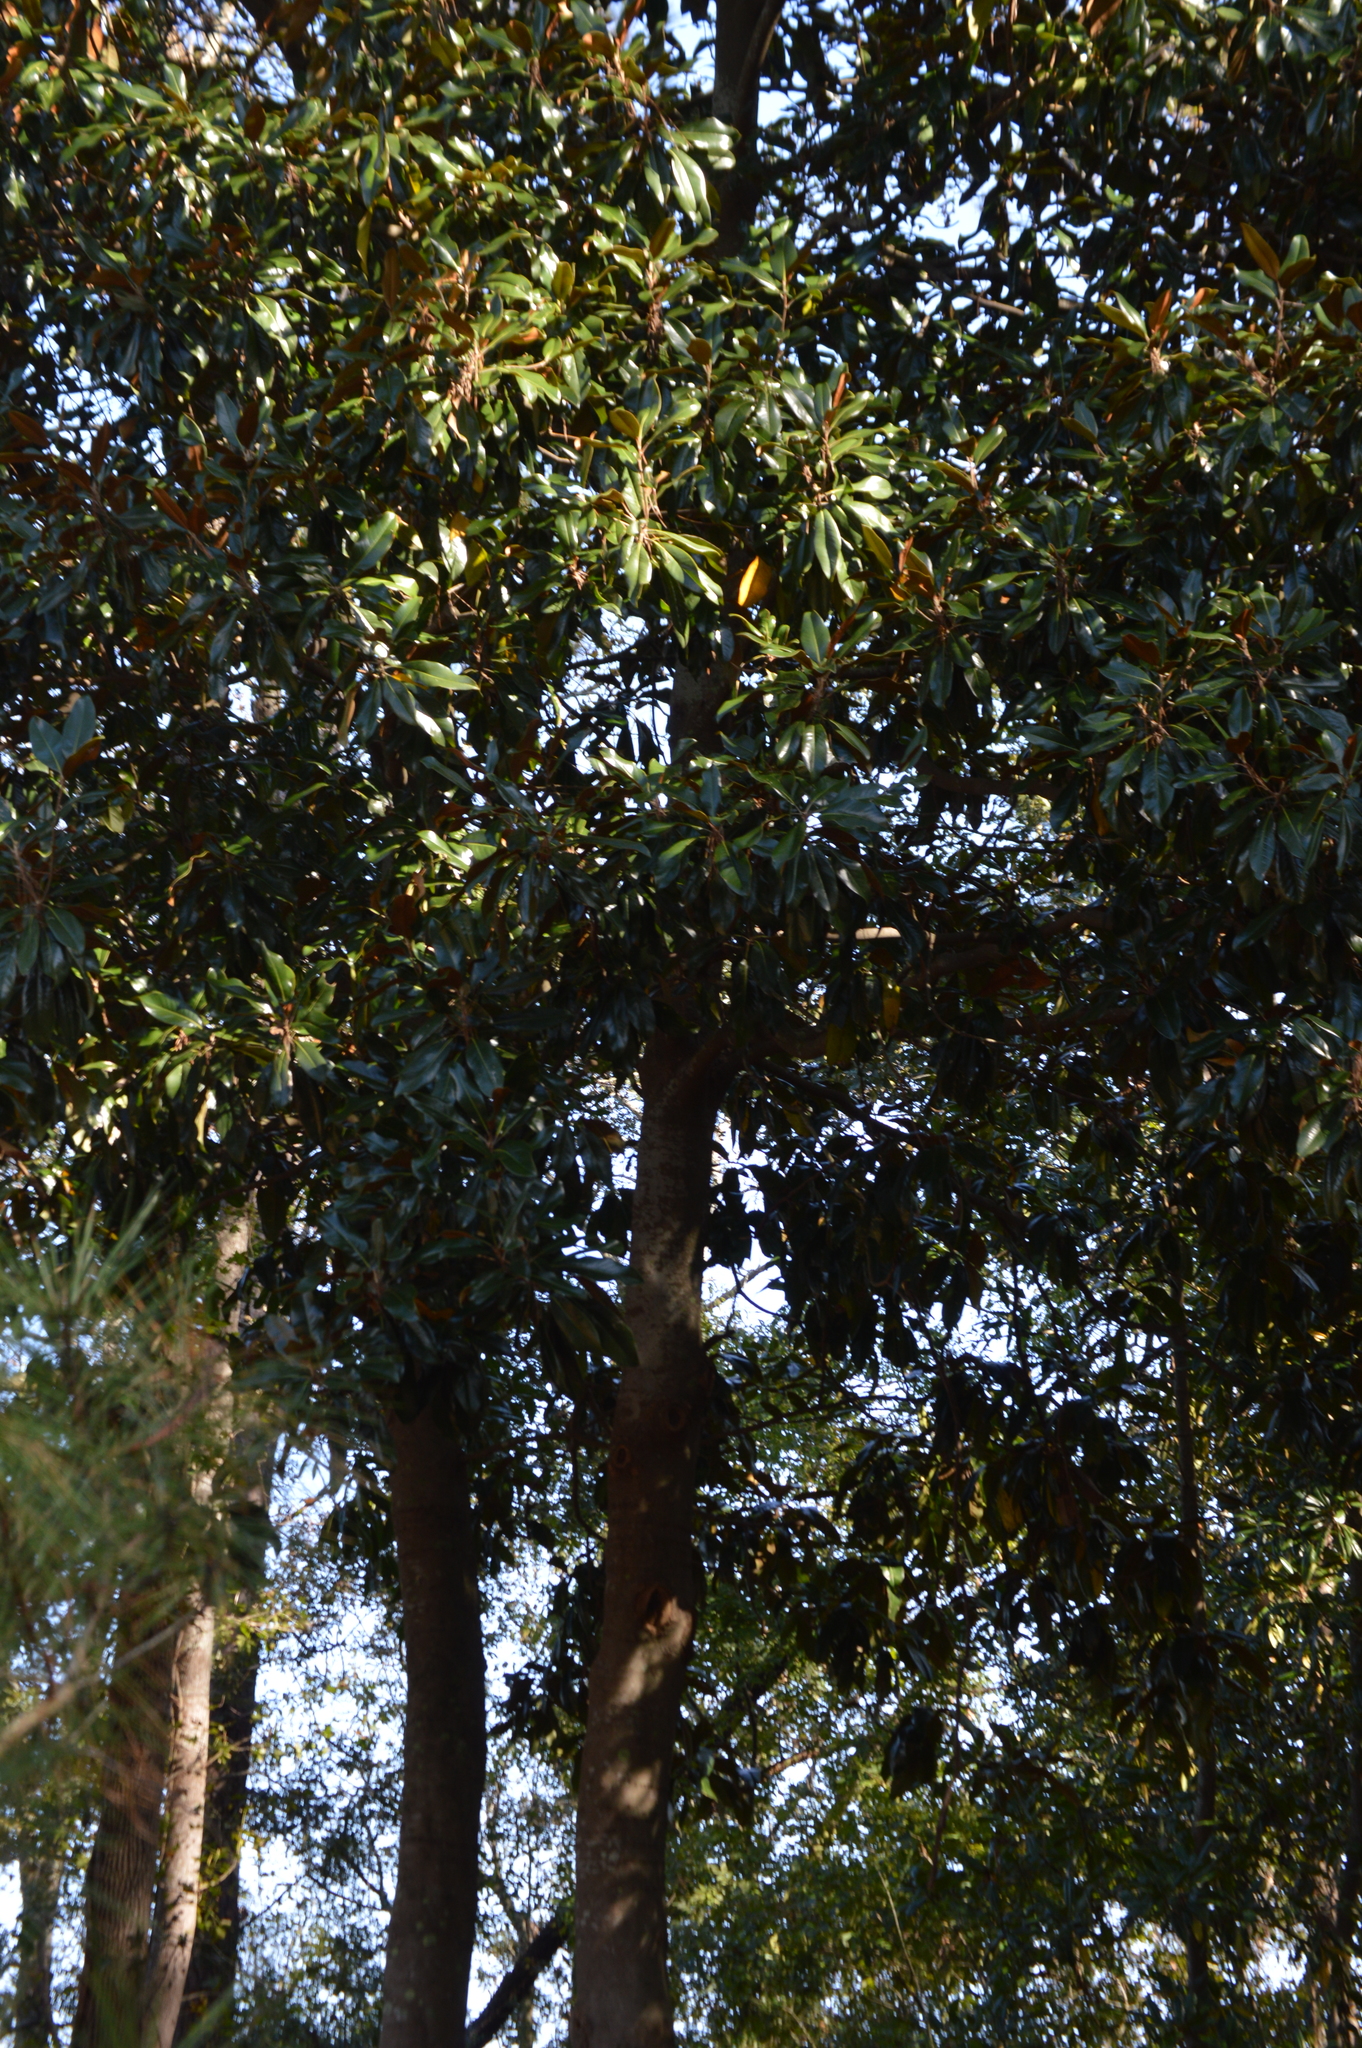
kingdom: Plantae
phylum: Tracheophyta
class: Magnoliopsida
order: Magnoliales
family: Magnoliaceae
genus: Magnolia
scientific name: Magnolia grandiflora
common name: Southern magnolia
